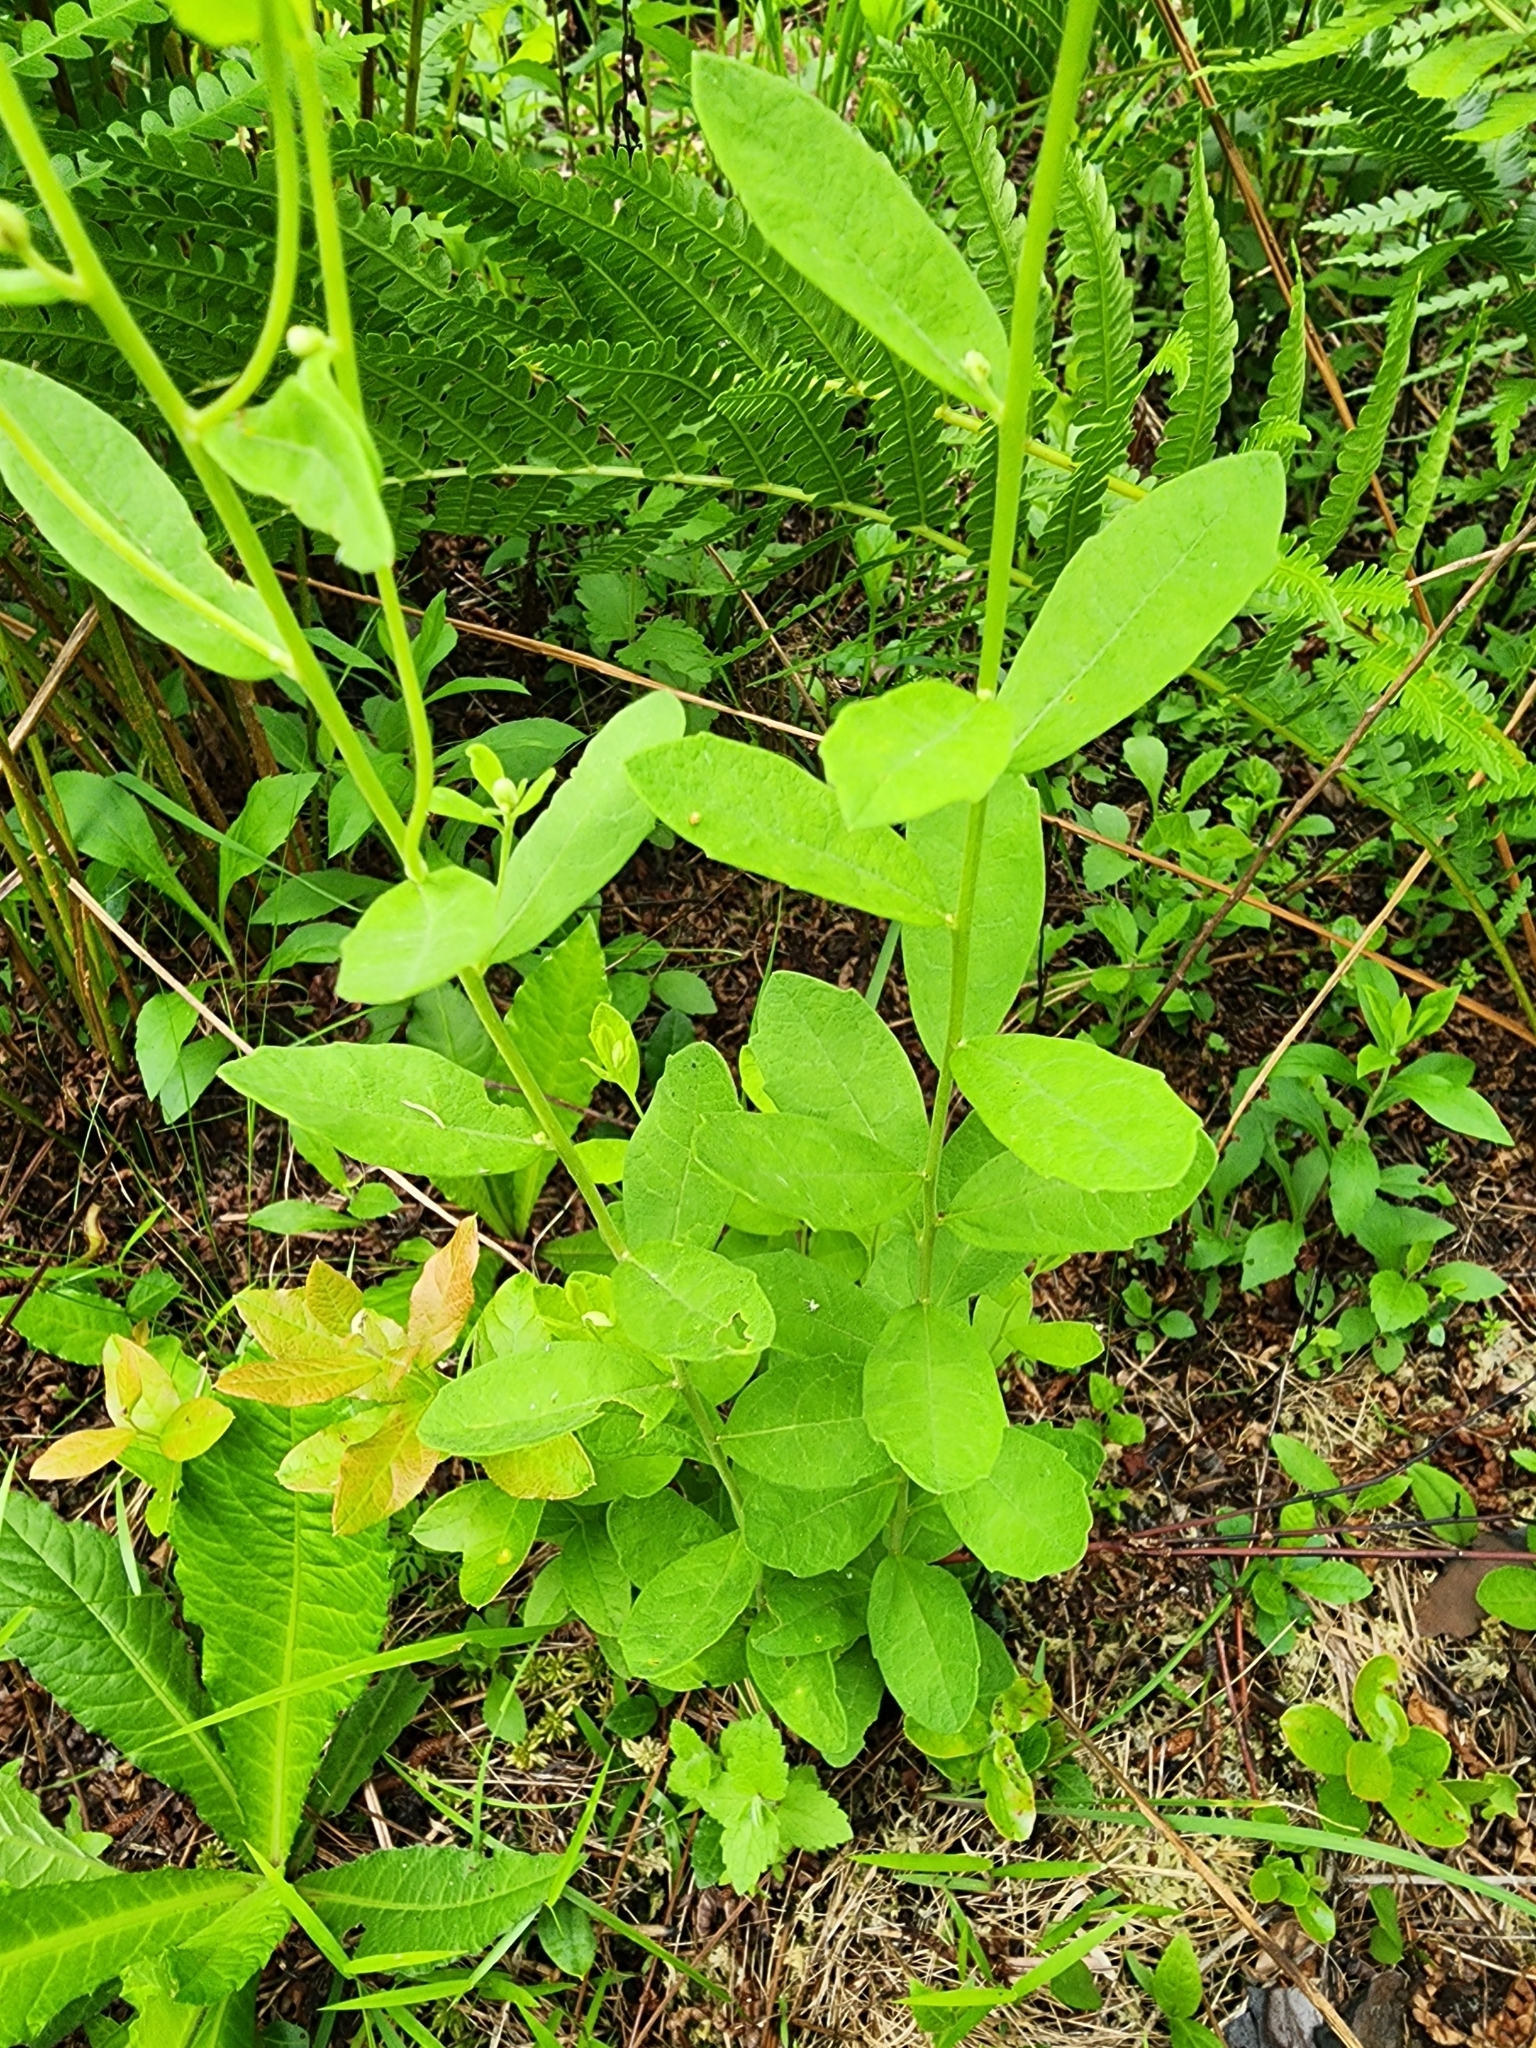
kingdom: Plantae
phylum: Tracheophyta
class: Magnoliopsida
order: Asterales
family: Asteraceae
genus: Oclemena
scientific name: Oclemena reticulata
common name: Pinebarren aster
